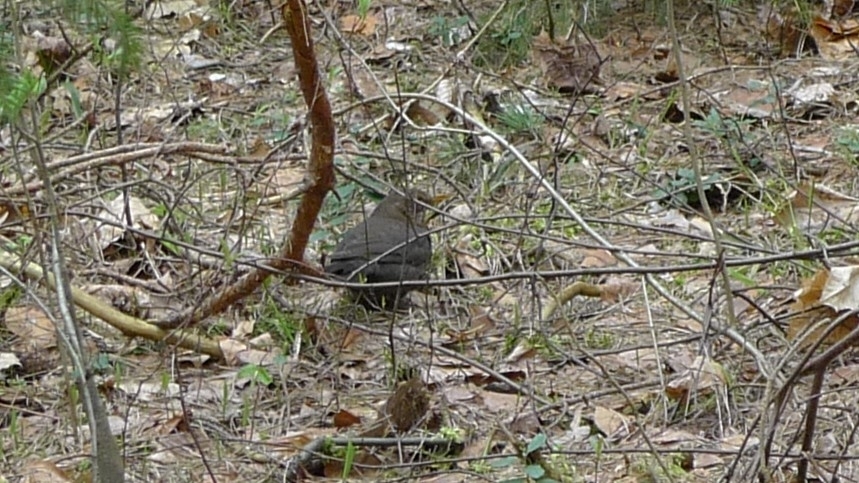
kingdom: Animalia
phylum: Chordata
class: Aves
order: Passeriformes
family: Turdidae
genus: Turdus
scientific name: Turdus merula
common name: Common blackbird
